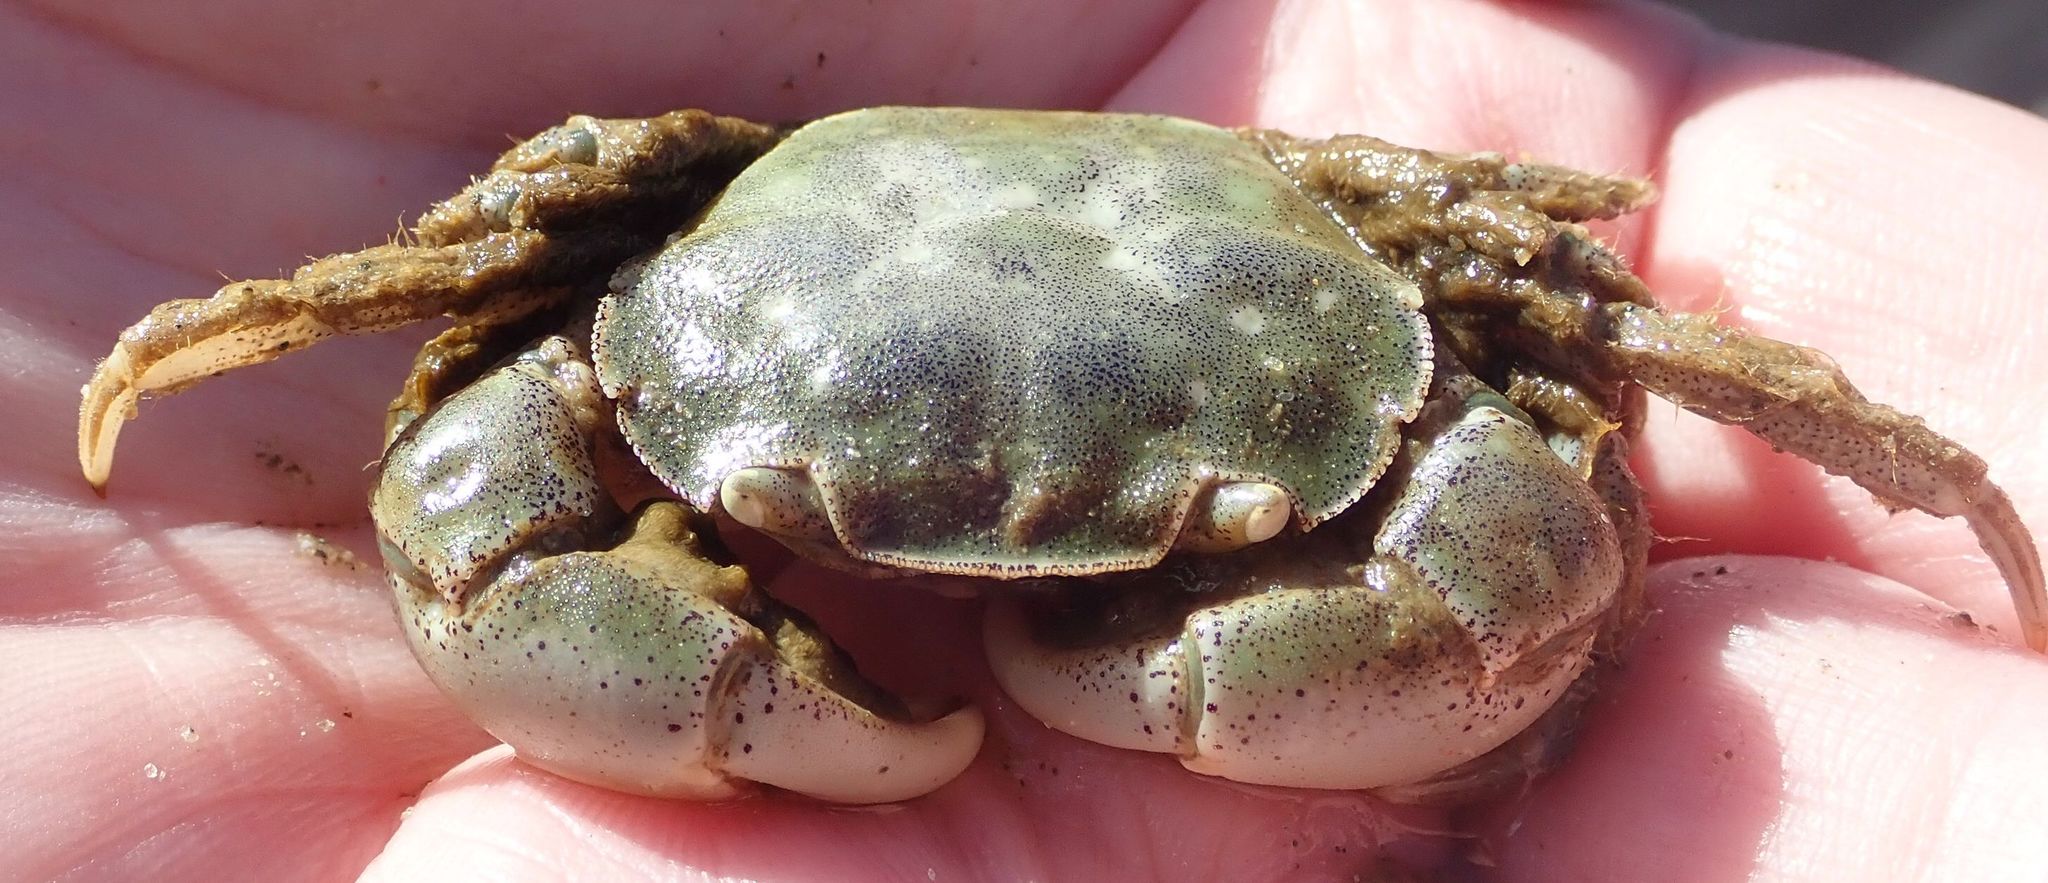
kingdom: Animalia
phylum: Arthropoda
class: Malacostraca
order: Decapoda
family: Varunidae
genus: Hemigrapsus
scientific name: Hemigrapsus crenulatus
